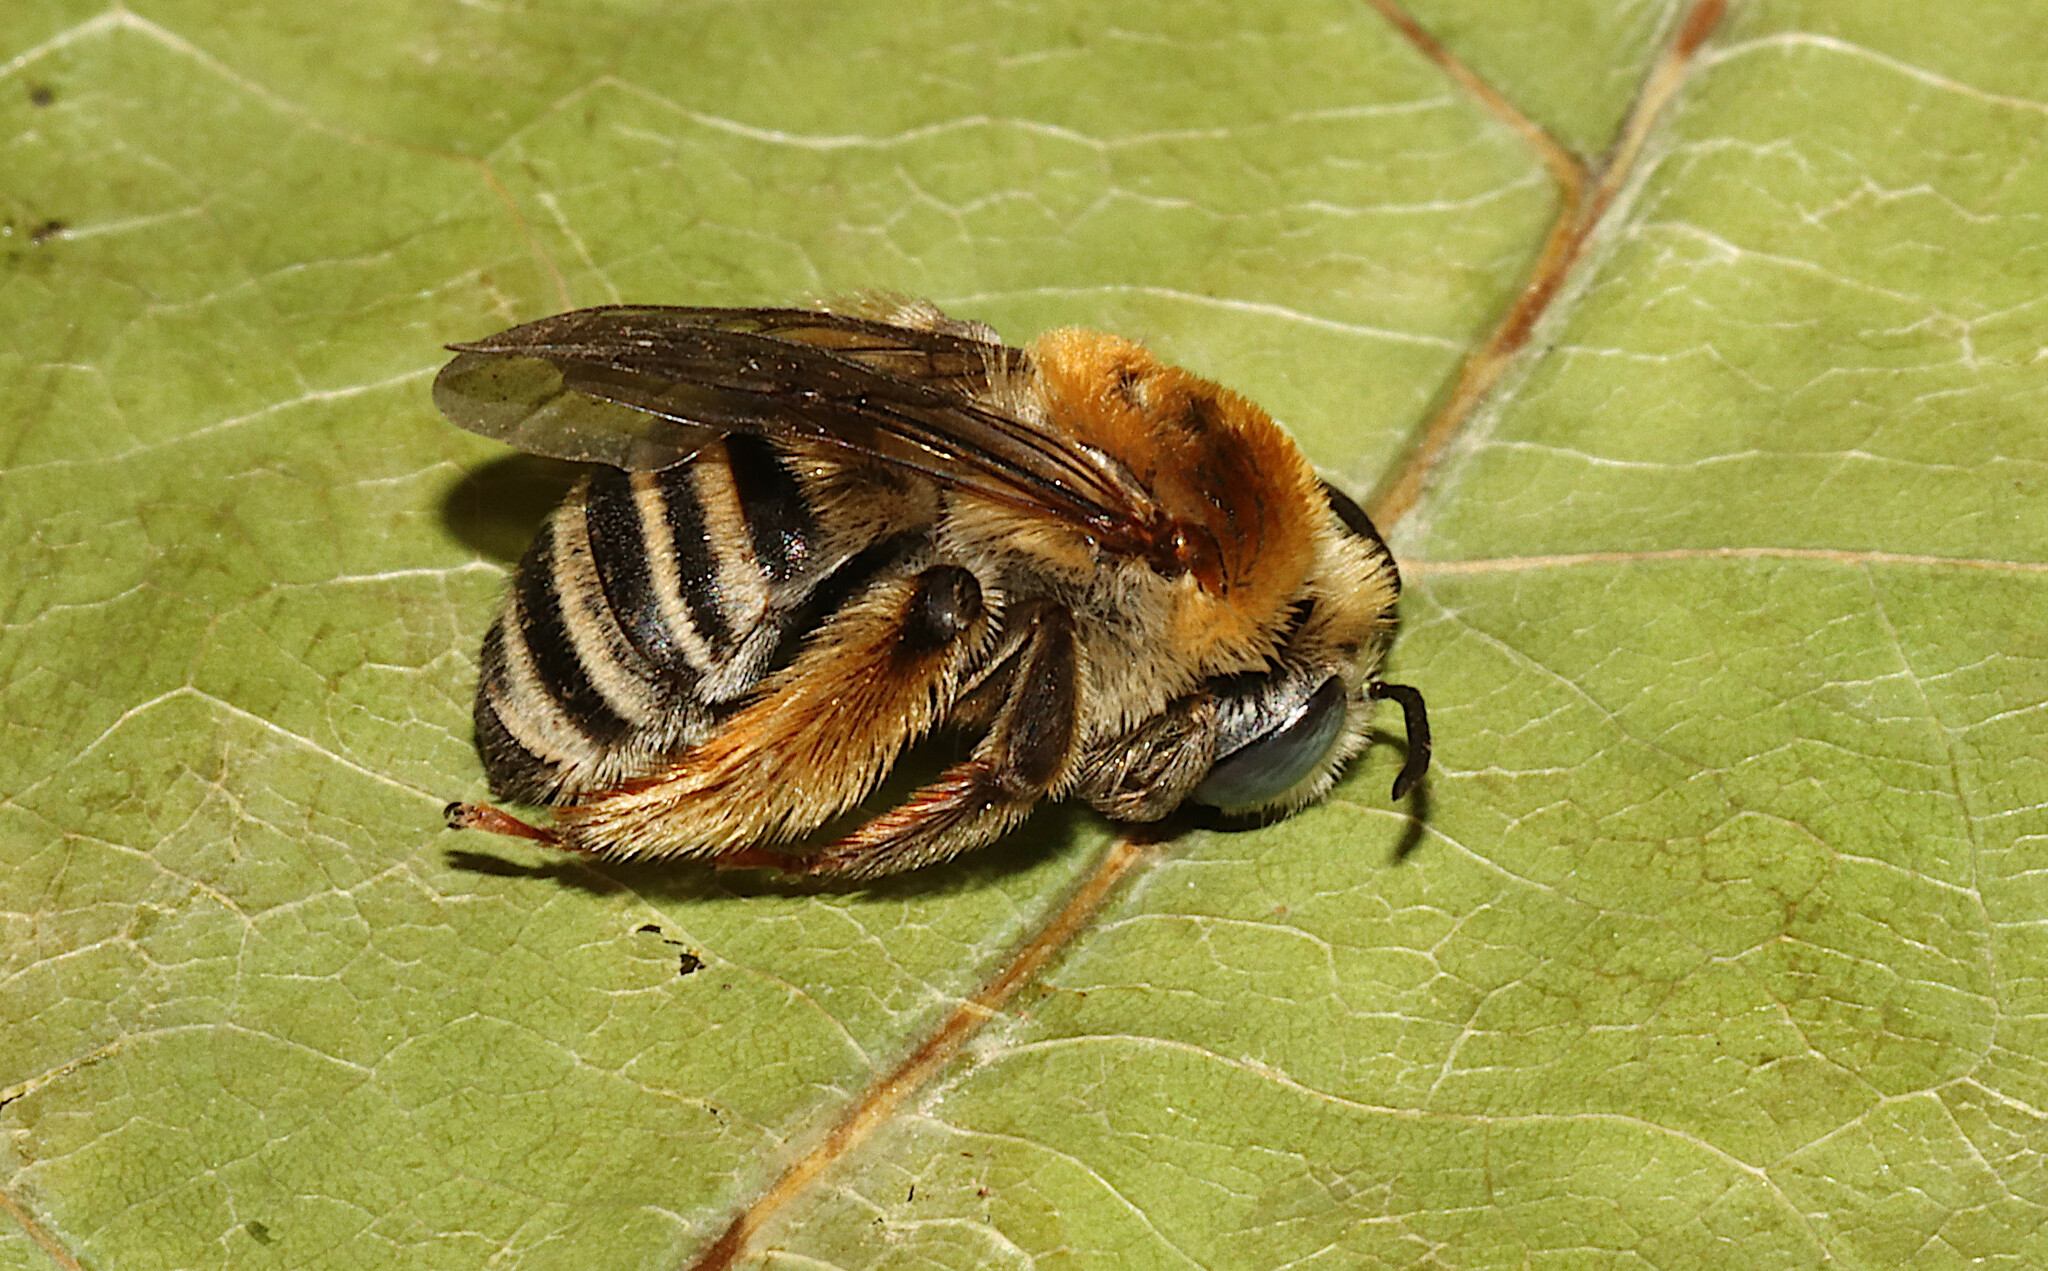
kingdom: Animalia
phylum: Arthropoda
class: Insecta
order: Hymenoptera
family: Apidae
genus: Melissodes
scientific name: Melissodes comptoides
